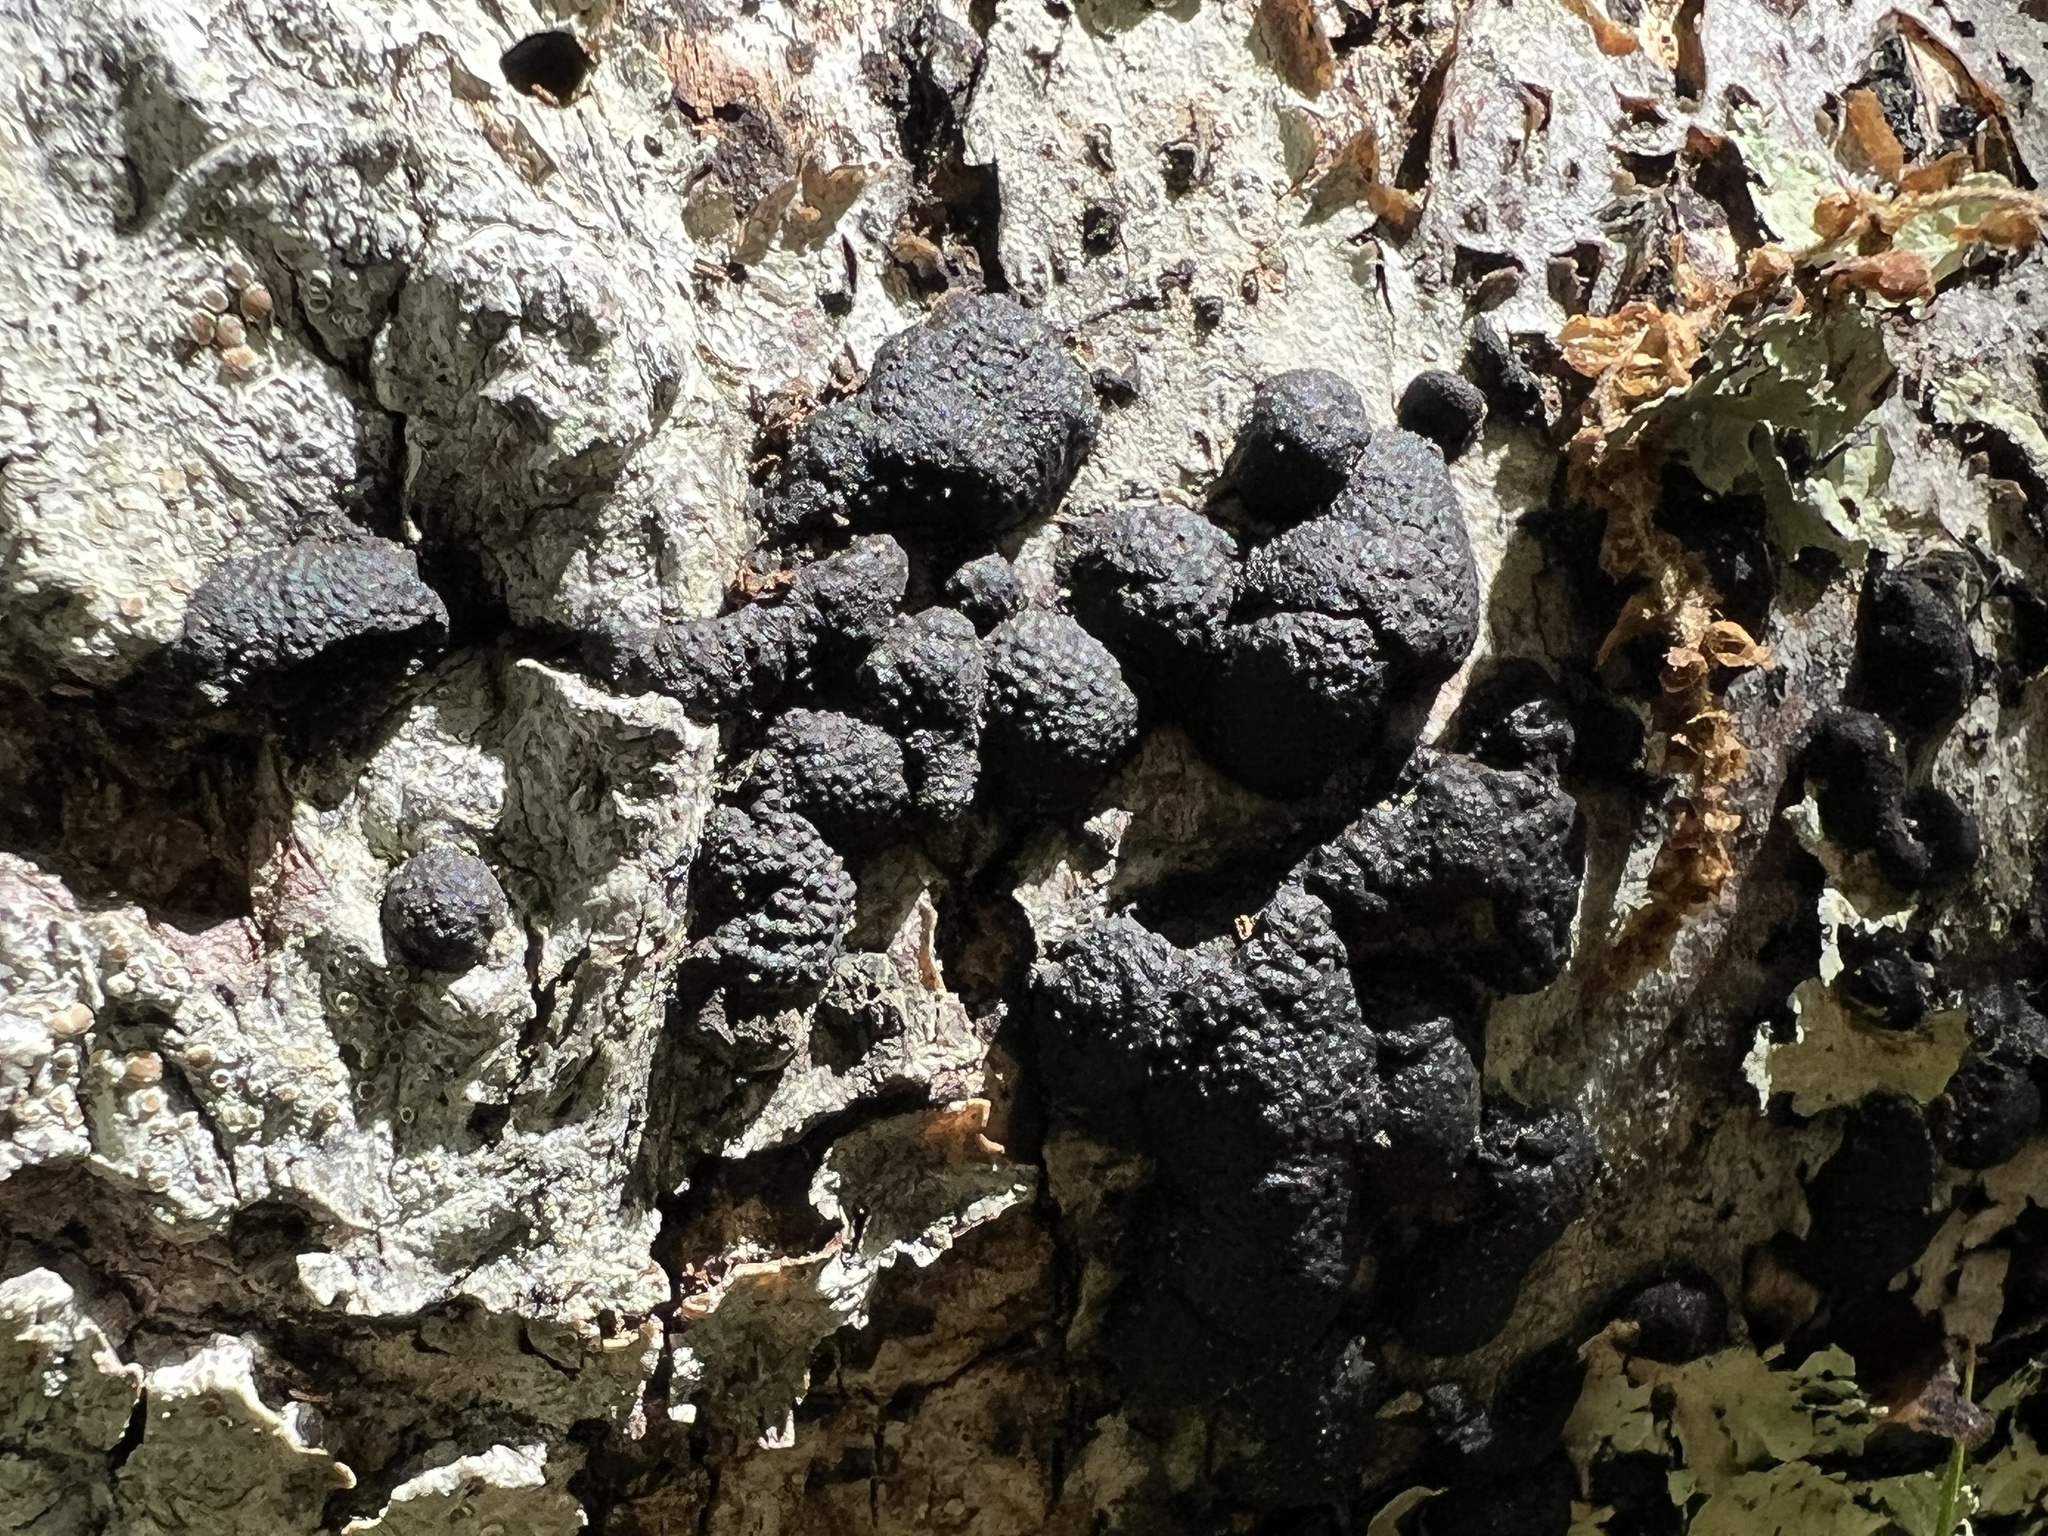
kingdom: Fungi
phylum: Ascomycota
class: Sordariomycetes
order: Xylariales
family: Hypoxylaceae
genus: Jackrogersella
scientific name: Jackrogersella multiformis
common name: Birch woodwart
